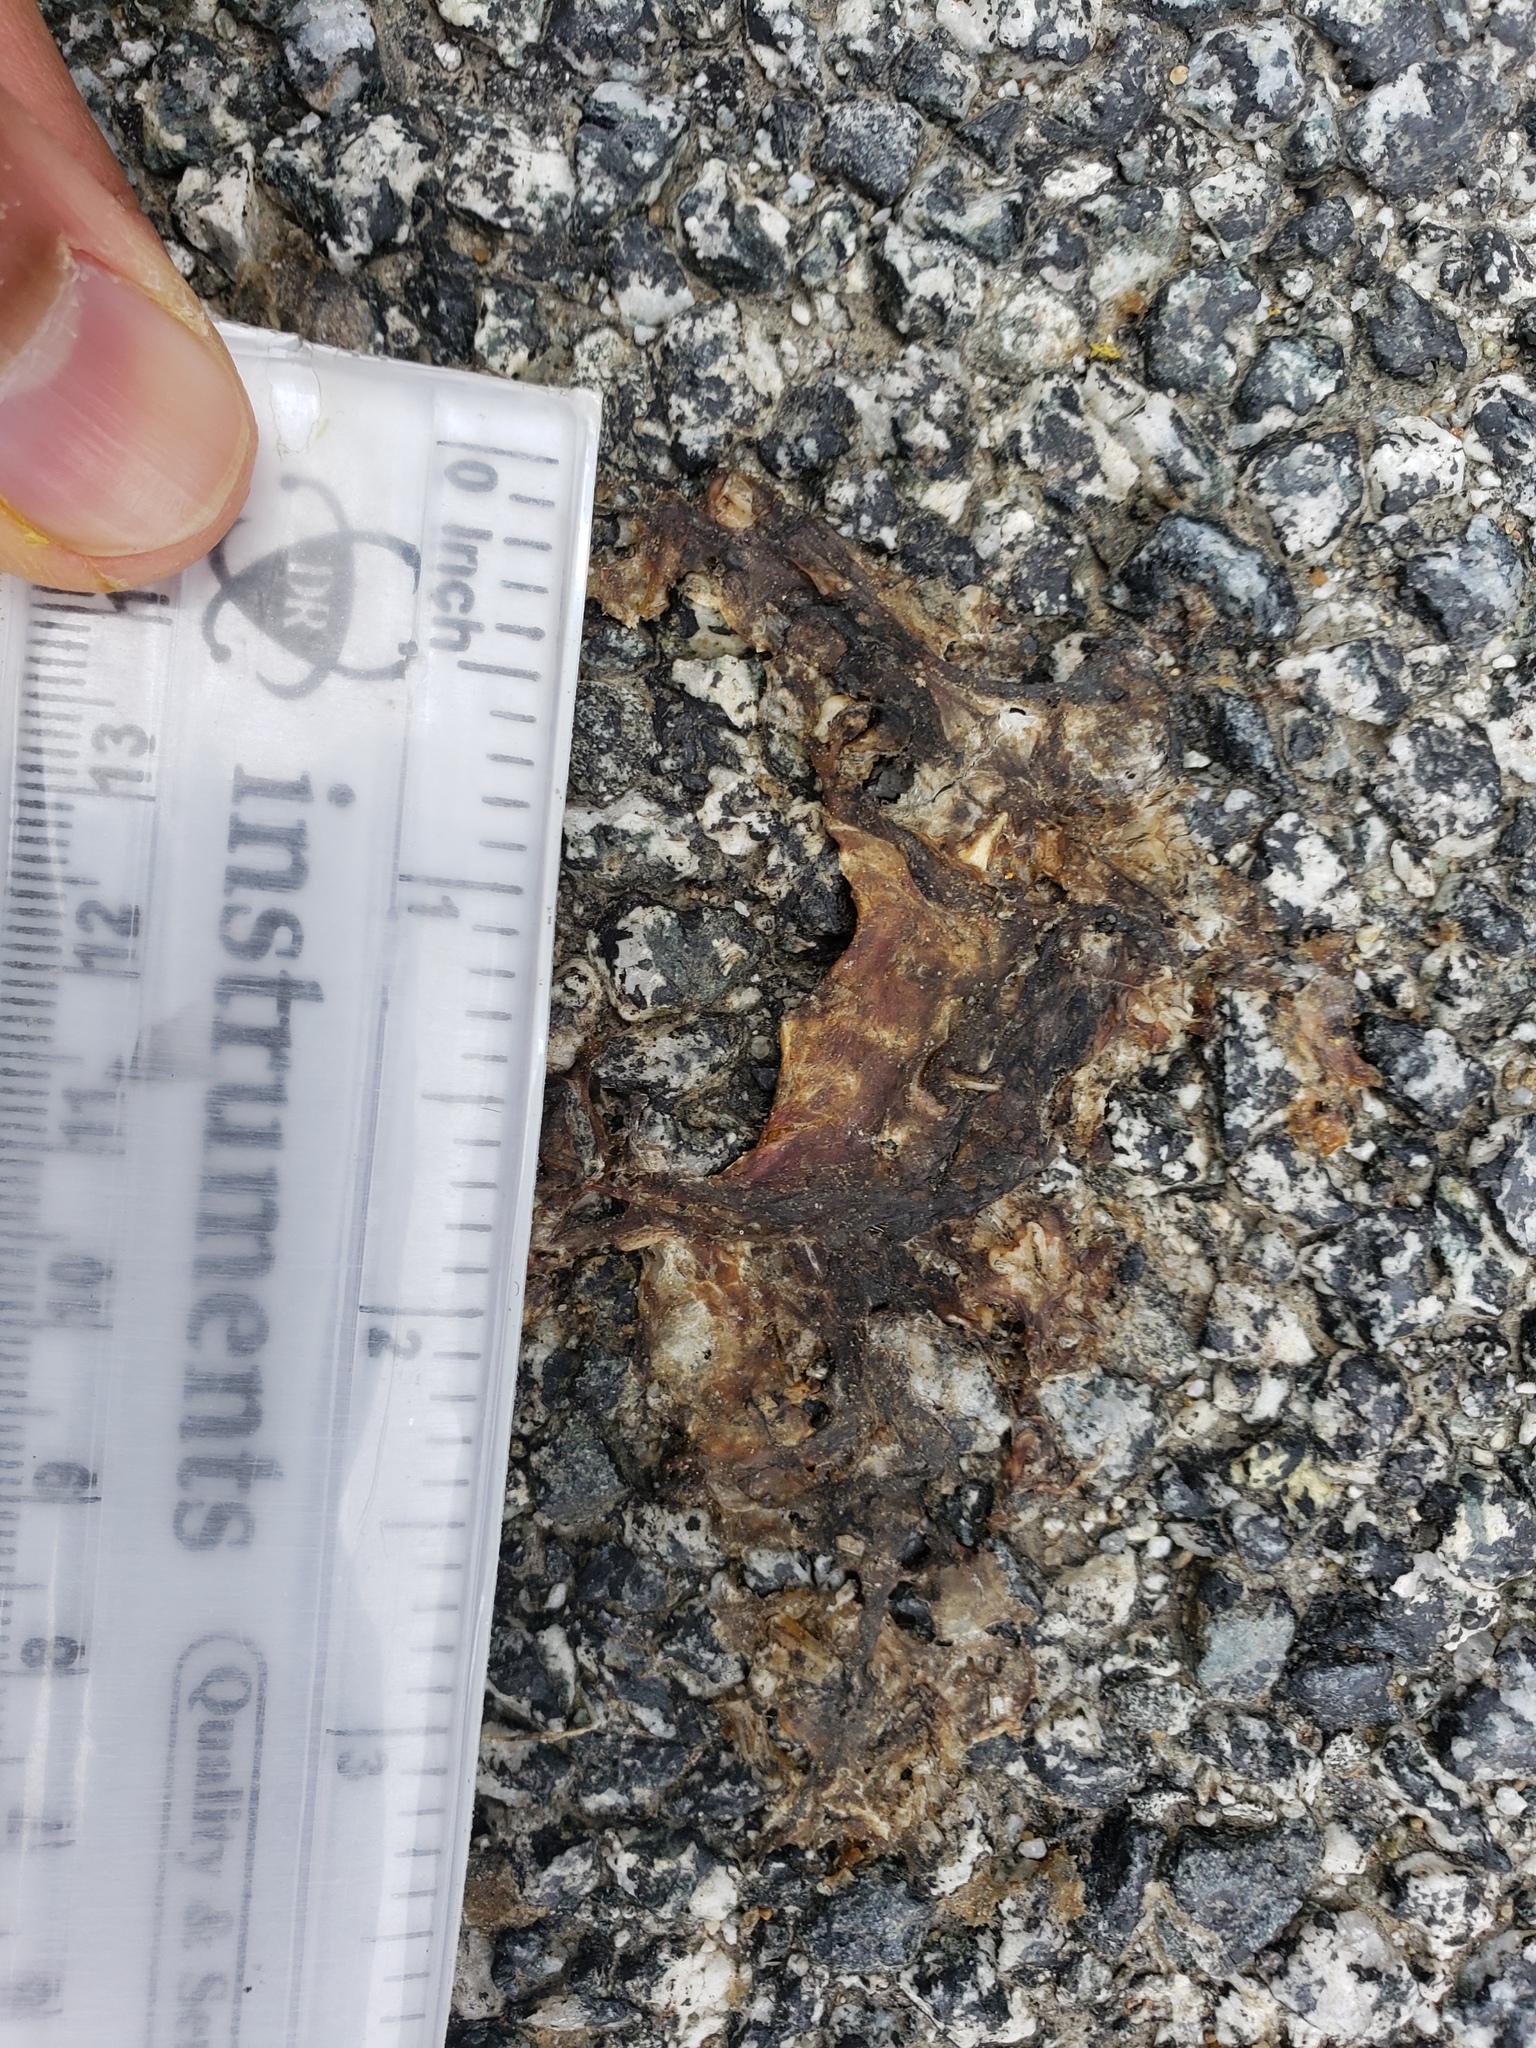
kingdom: Animalia
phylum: Chordata
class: Amphibia
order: Caudata
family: Salamandridae
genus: Taricha
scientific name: Taricha
